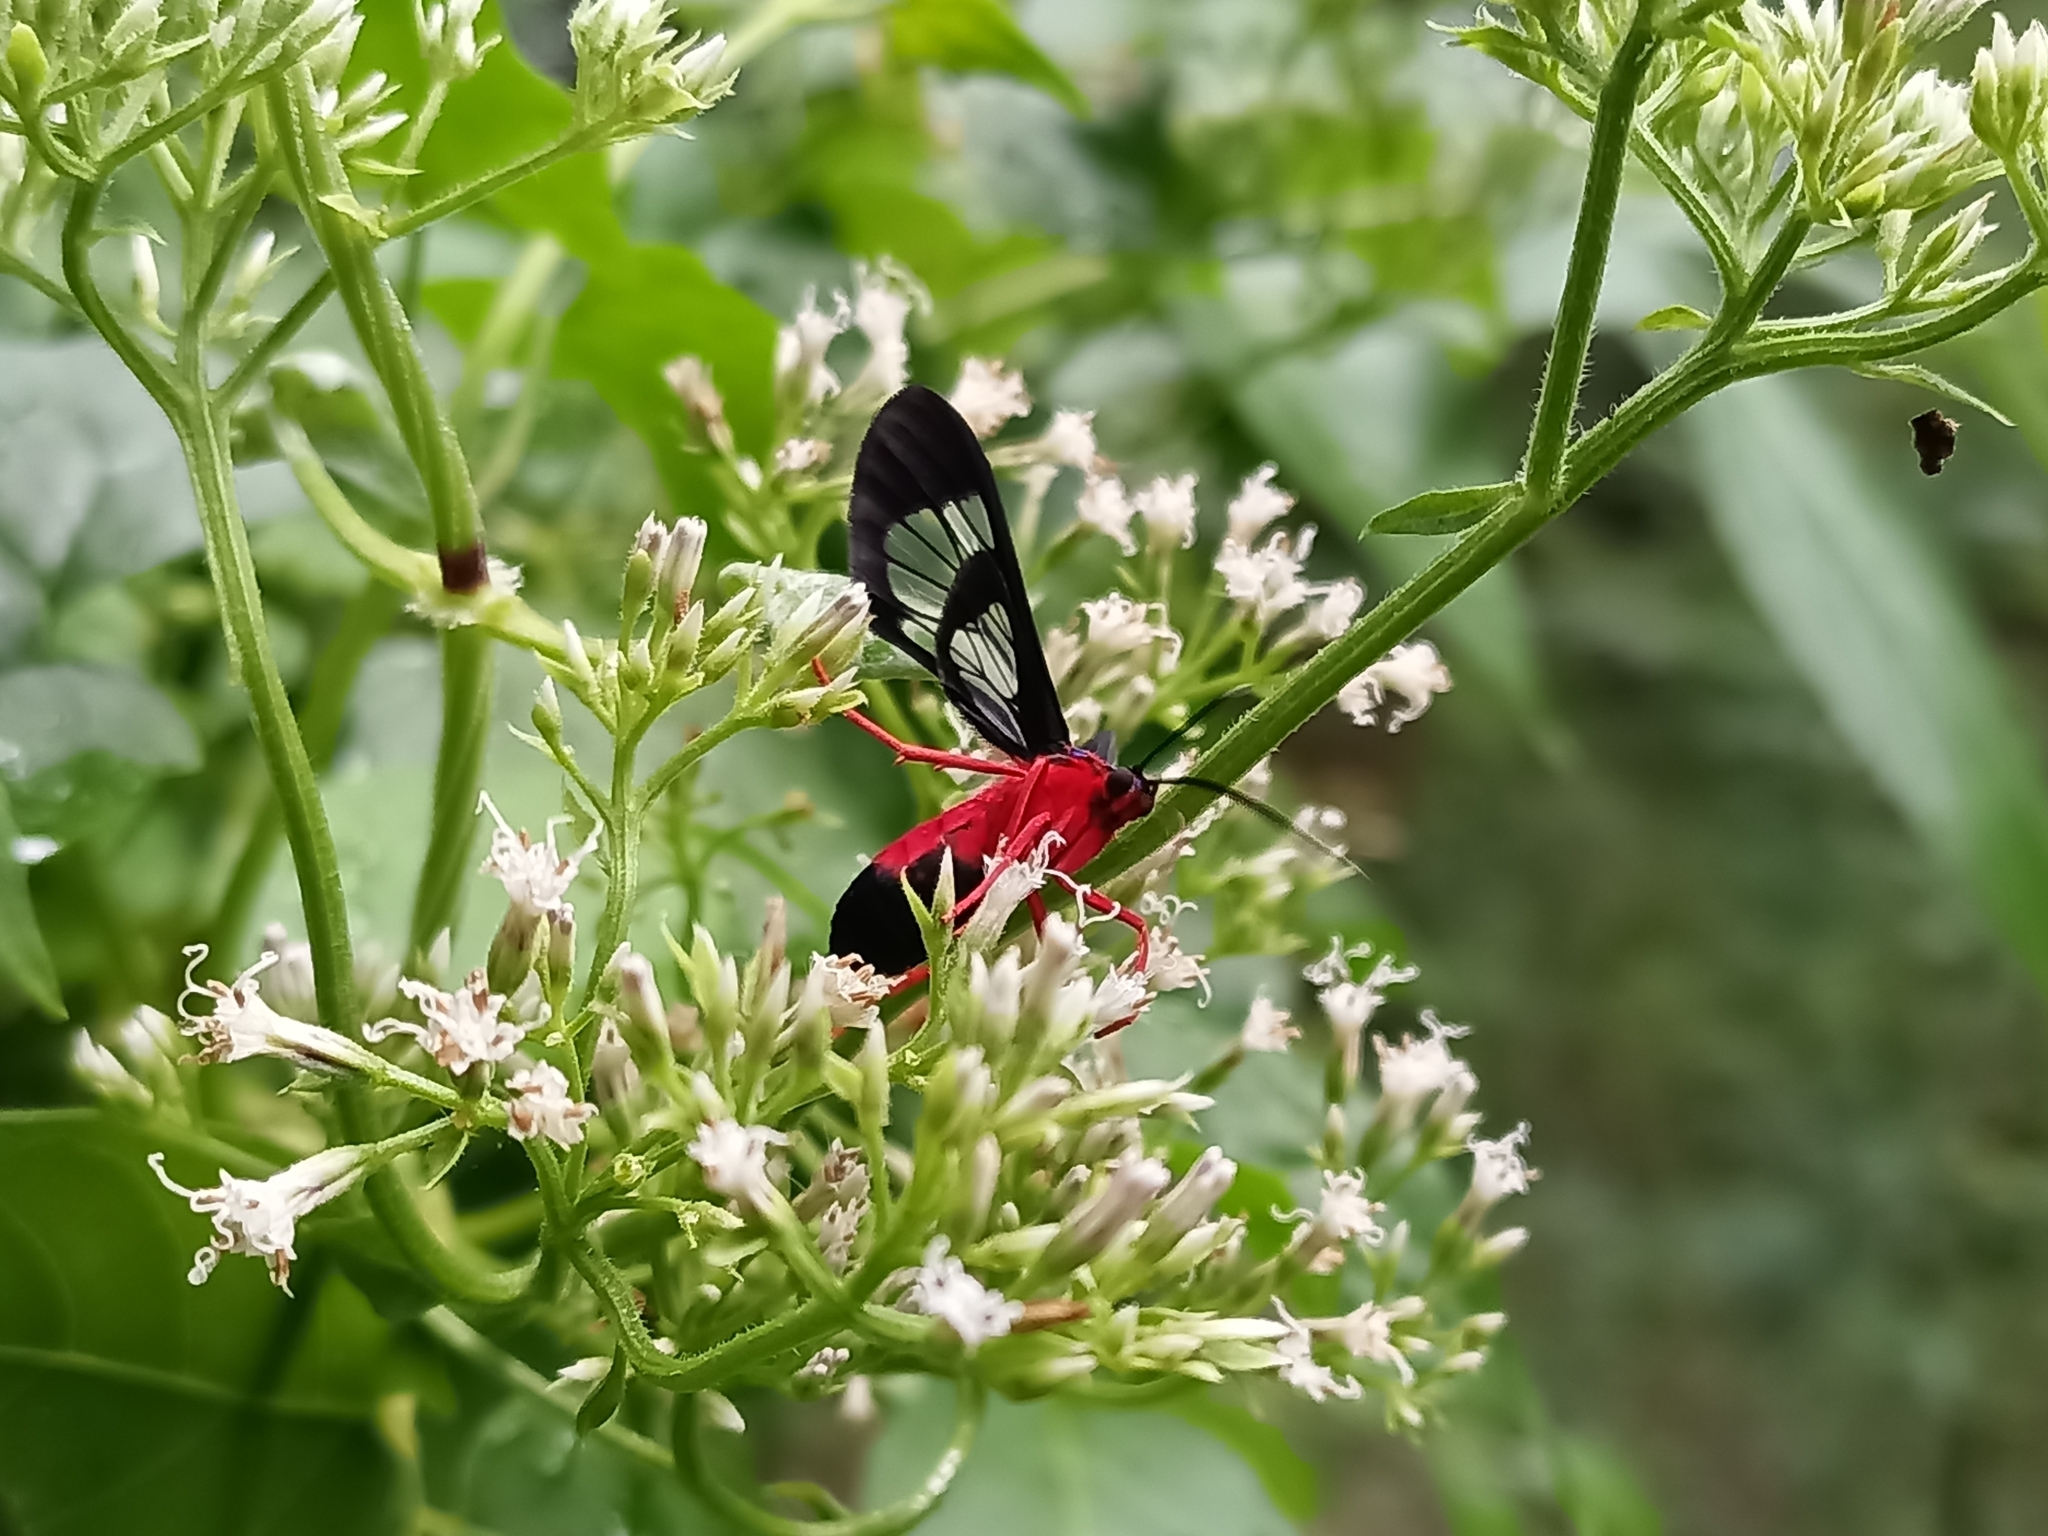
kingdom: Animalia
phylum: Arthropoda
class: Insecta
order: Lepidoptera
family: Erebidae
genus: Cosmosoma
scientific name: Cosmosoma myrodora
